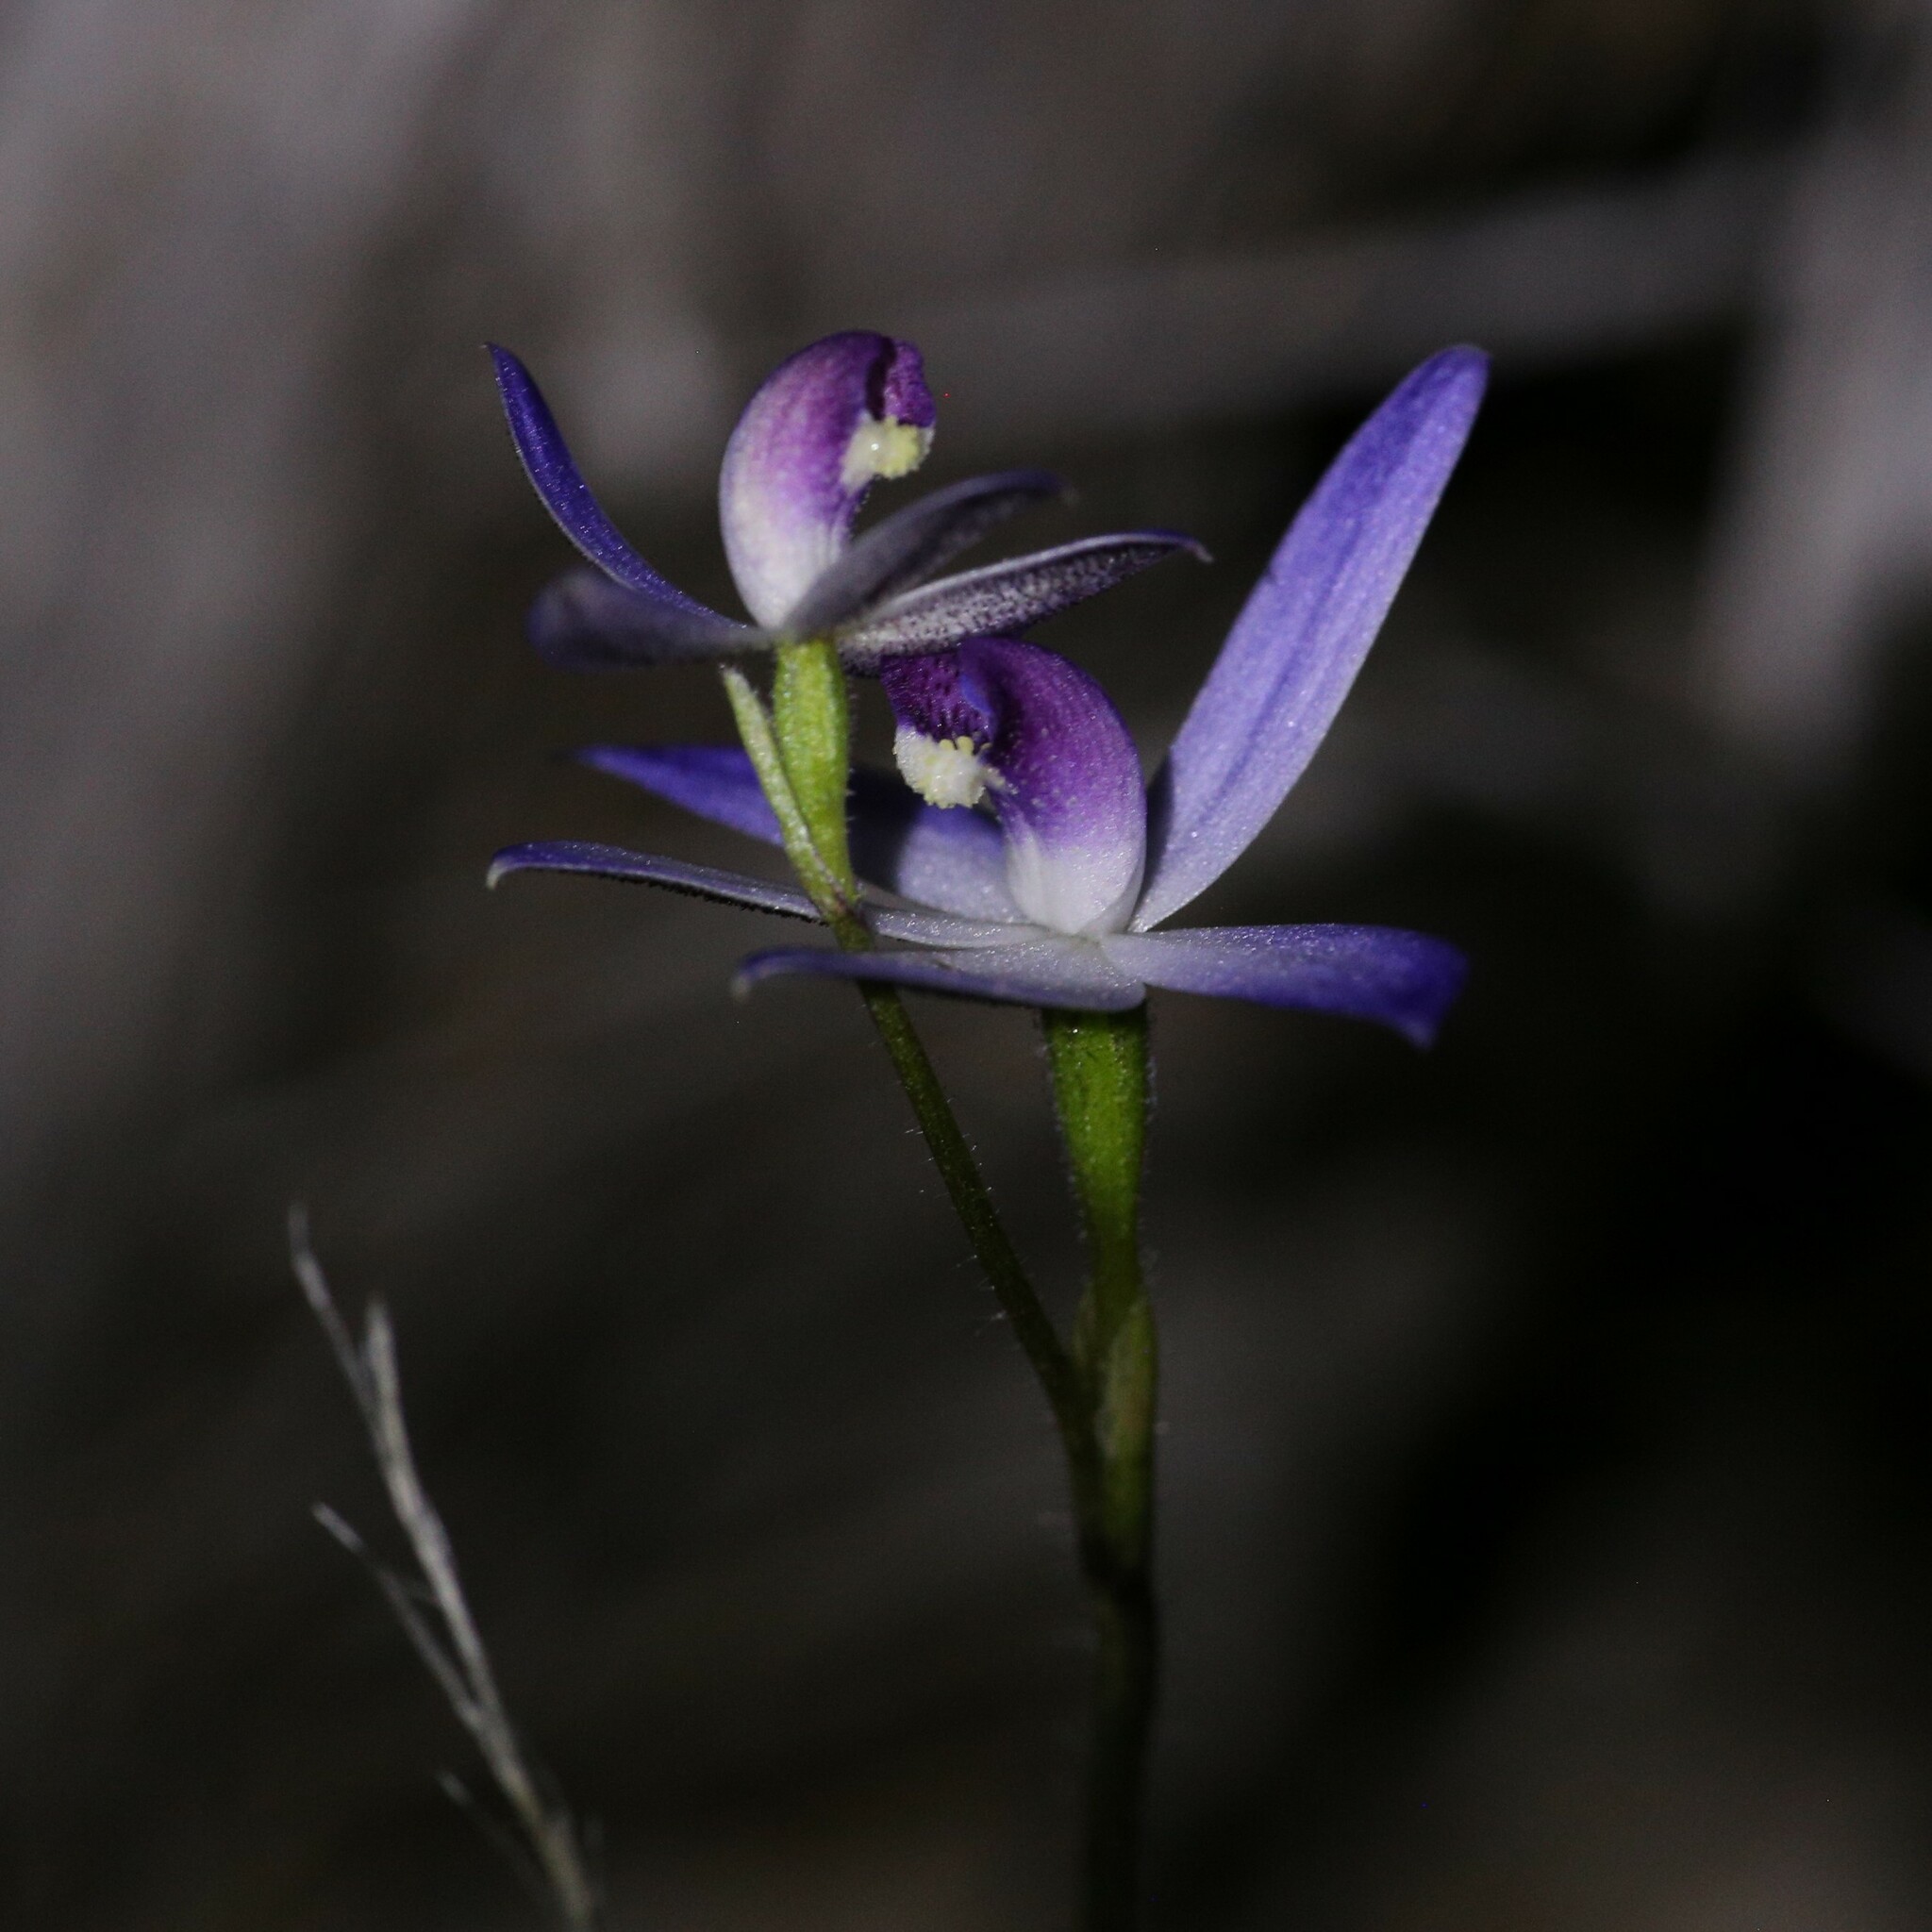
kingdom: Plantae
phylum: Tracheophyta
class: Liliopsida
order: Asparagales
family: Orchidaceae
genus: Caladenia
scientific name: Caladenia amplexans
